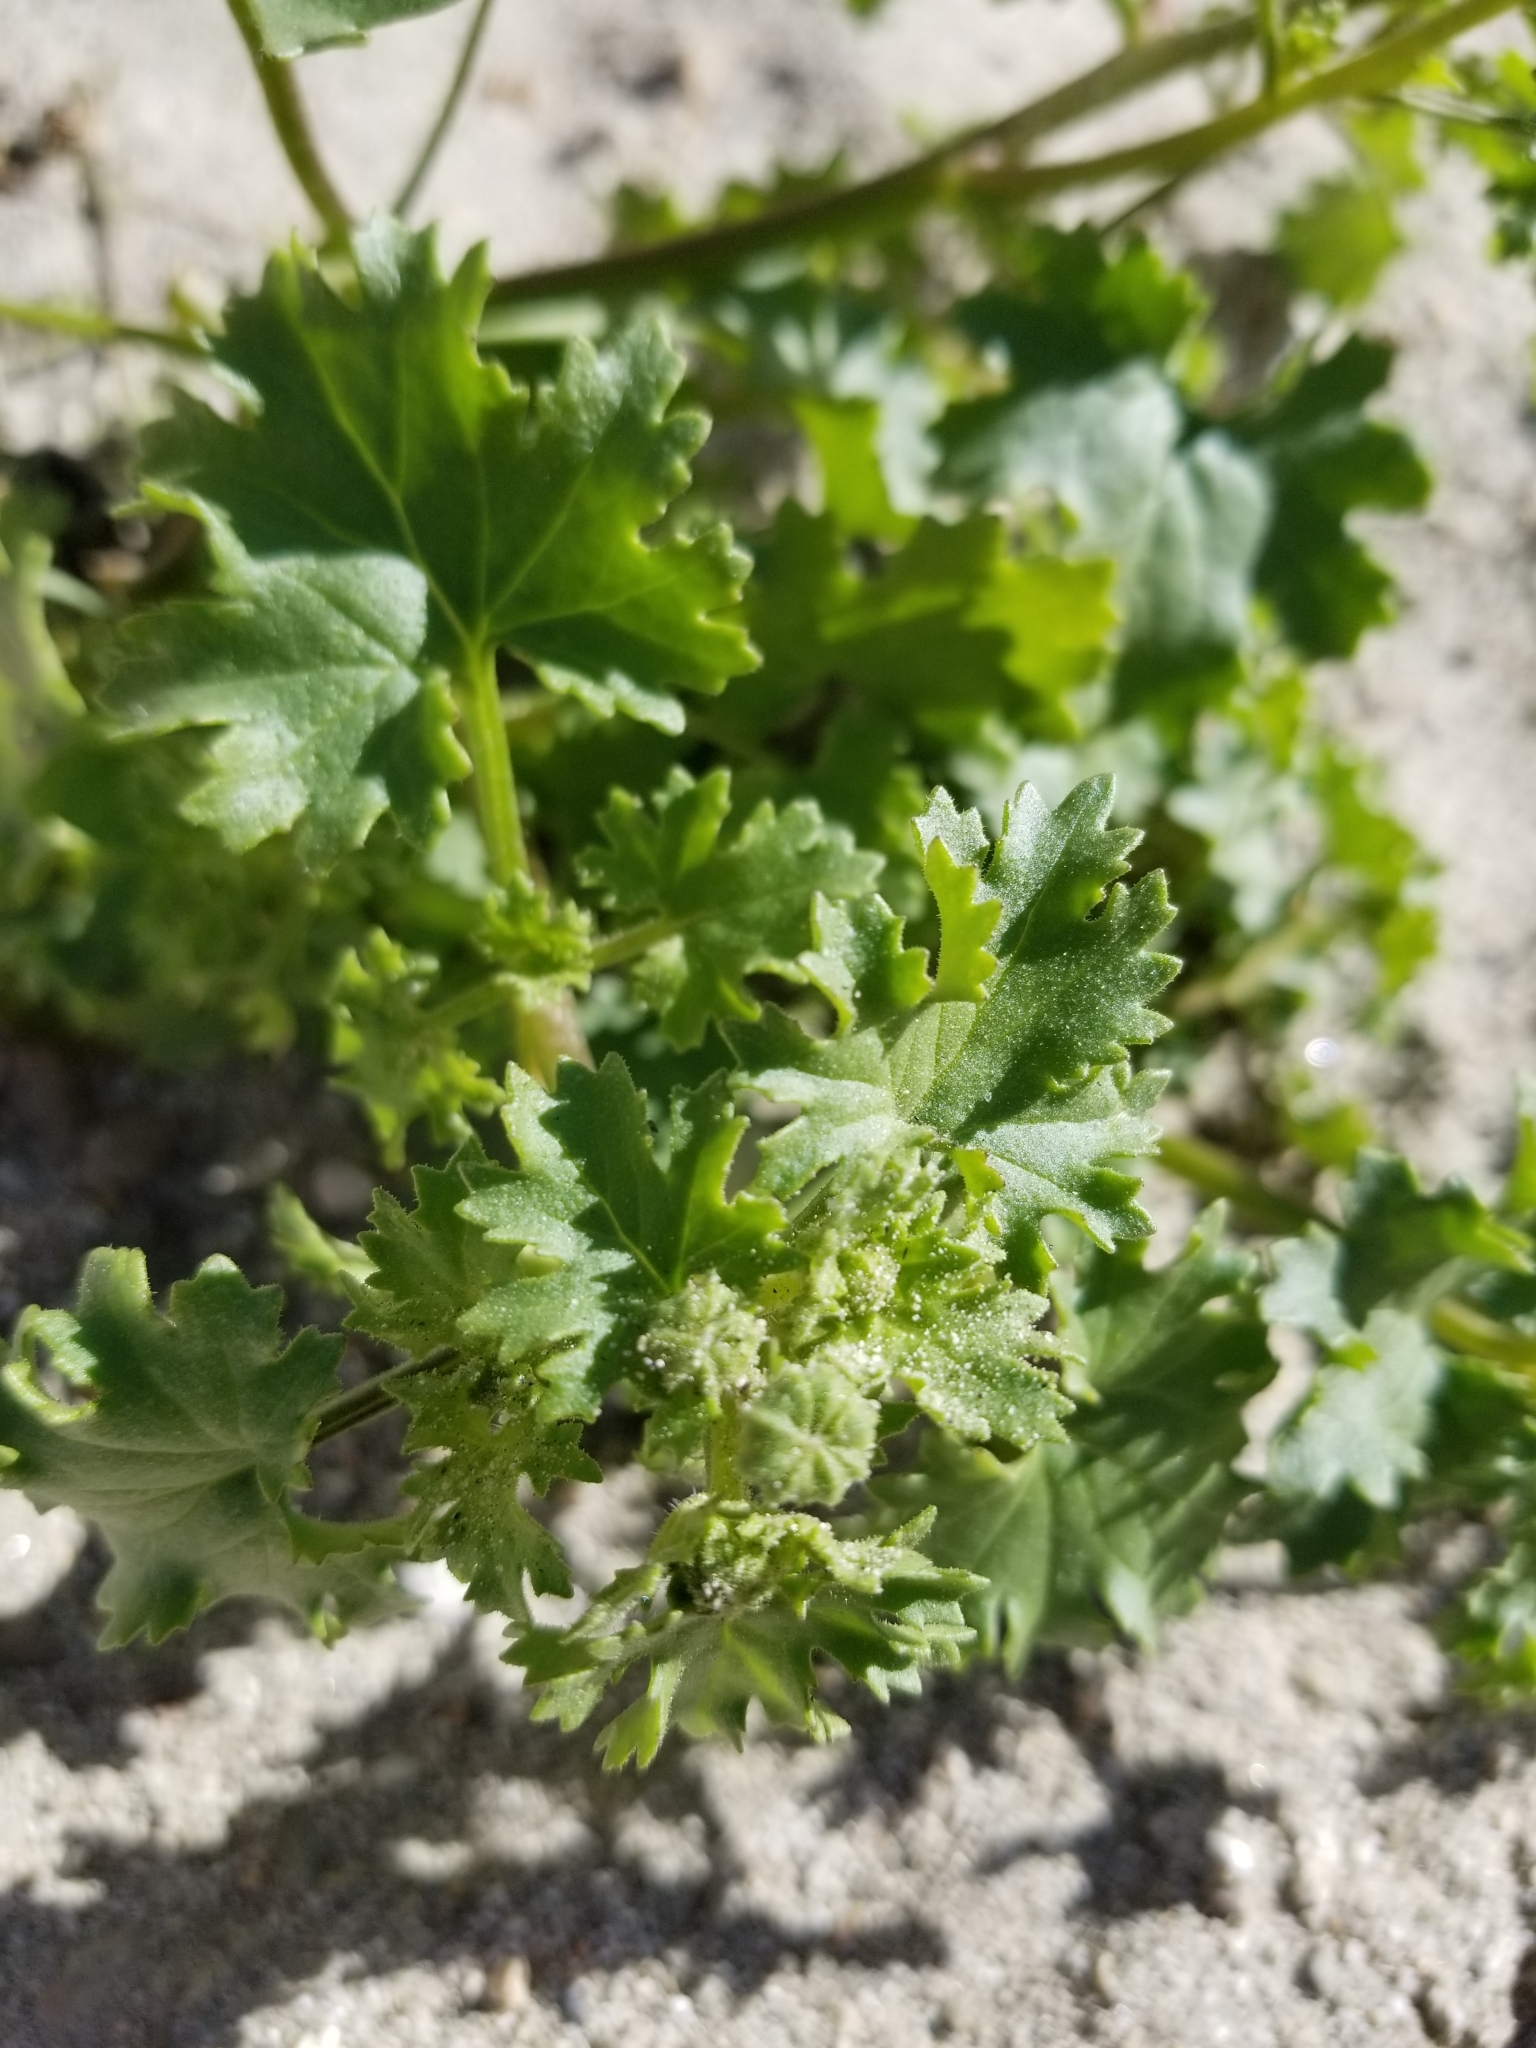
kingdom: Plantae
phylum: Tracheophyta
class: Magnoliopsida
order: Asterales
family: Asteraceae
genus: Laphamia
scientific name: Laphamia emoryi
